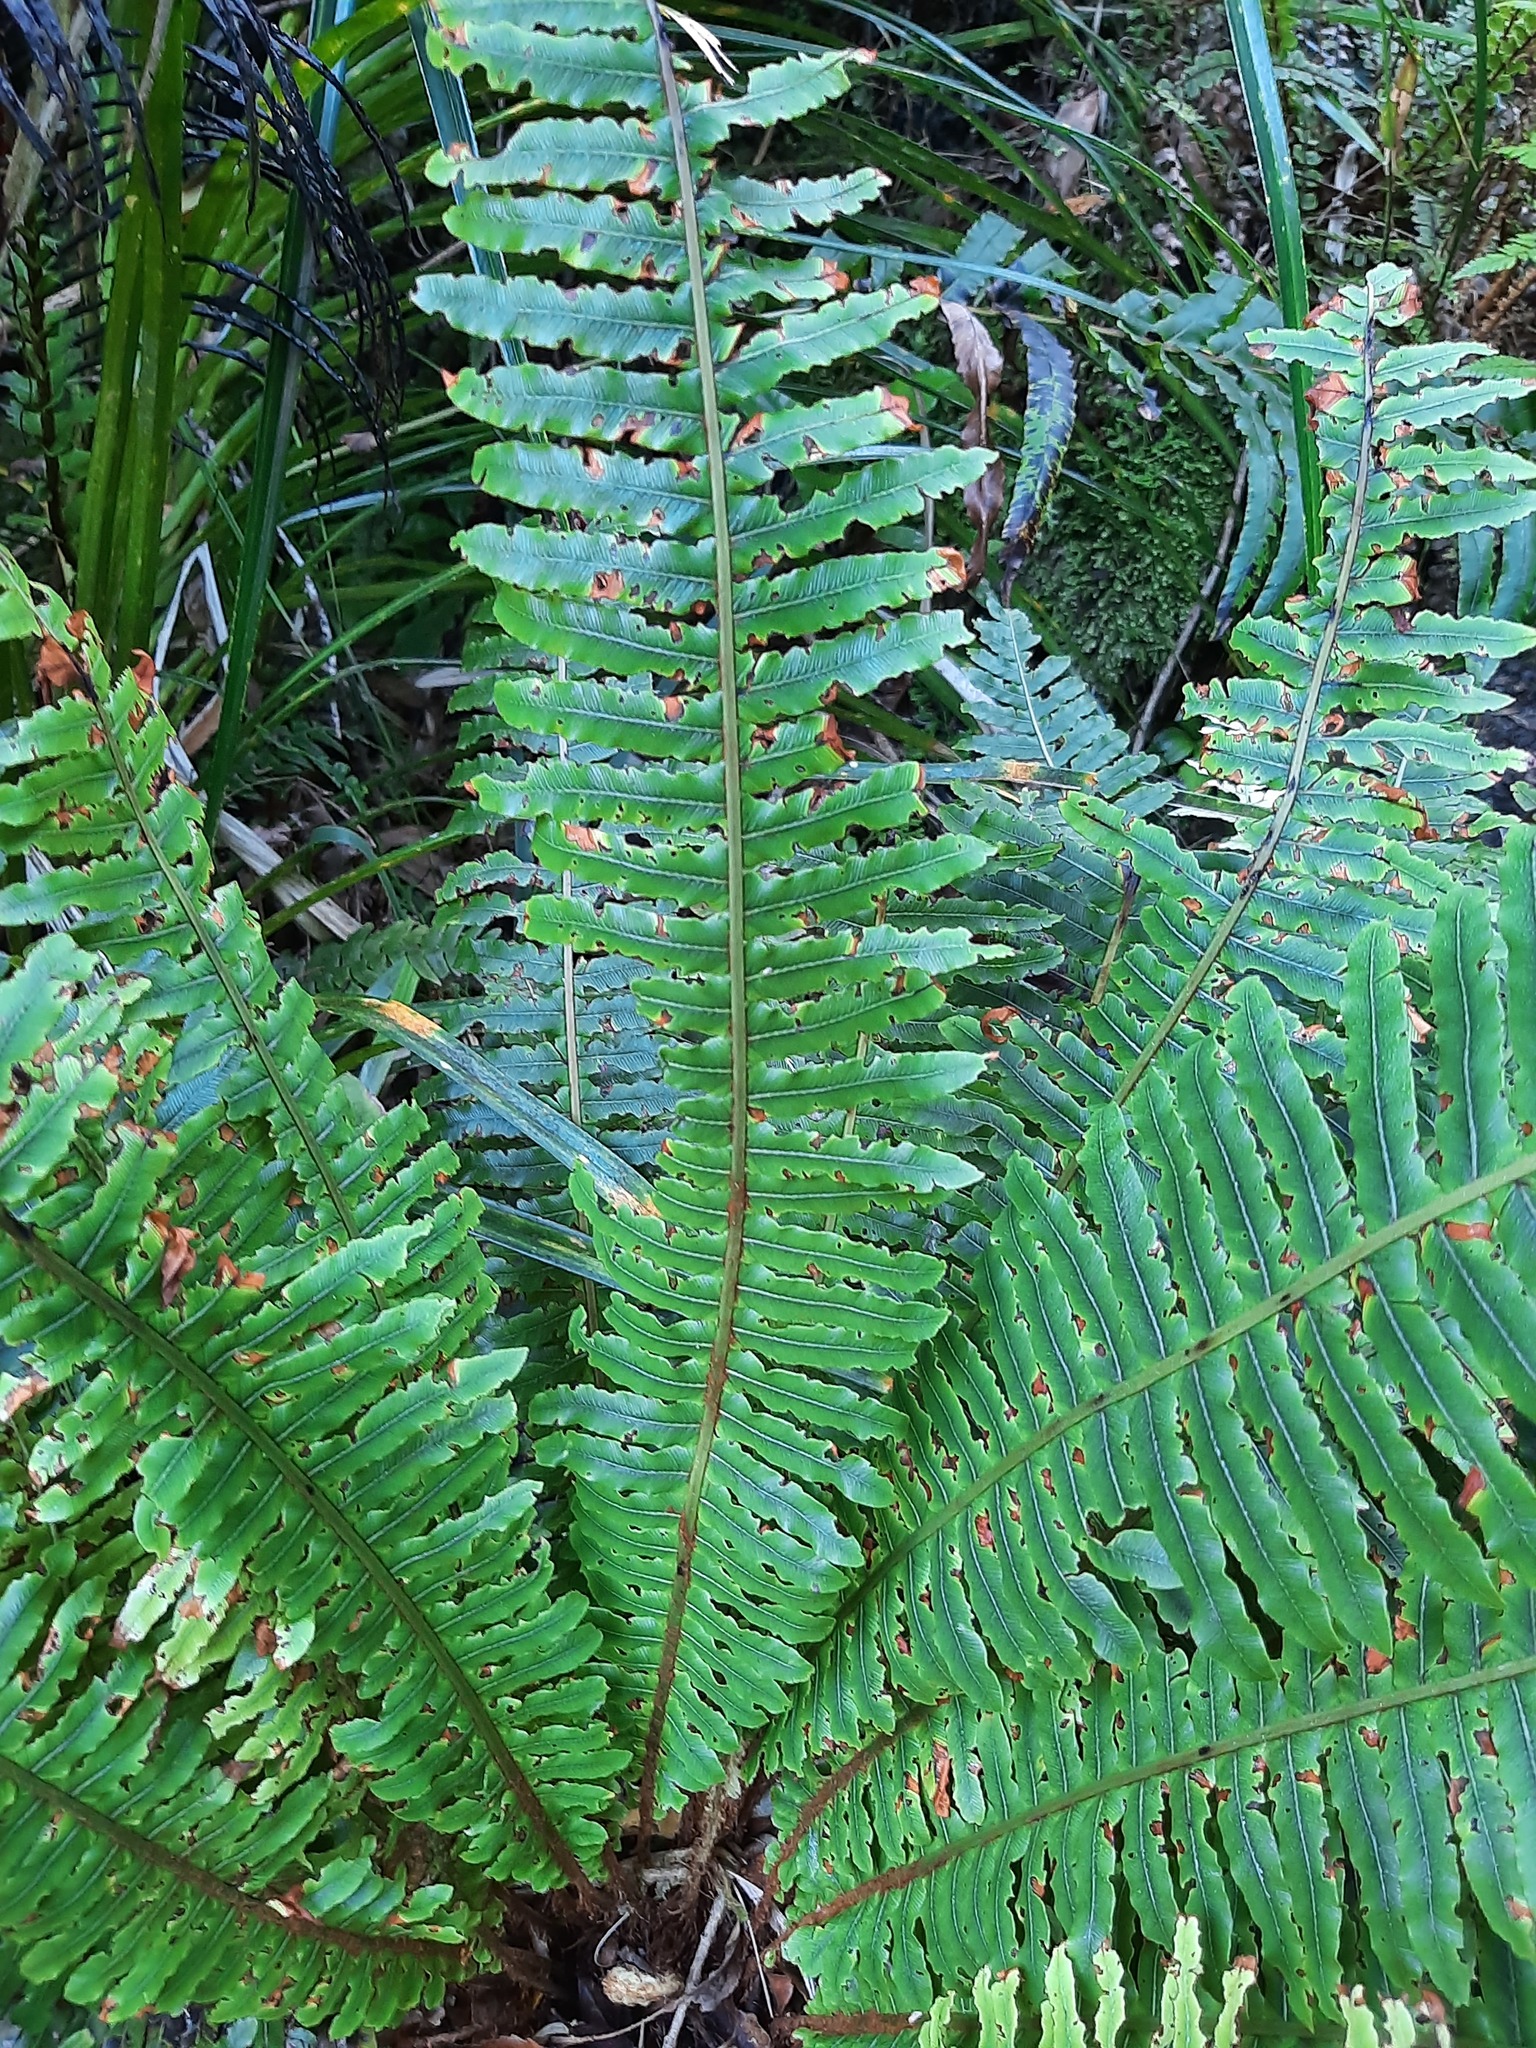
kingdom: Plantae
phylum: Tracheophyta
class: Polypodiopsida
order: Polypodiales
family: Blechnaceae
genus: Lomaria
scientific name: Lomaria discolor
